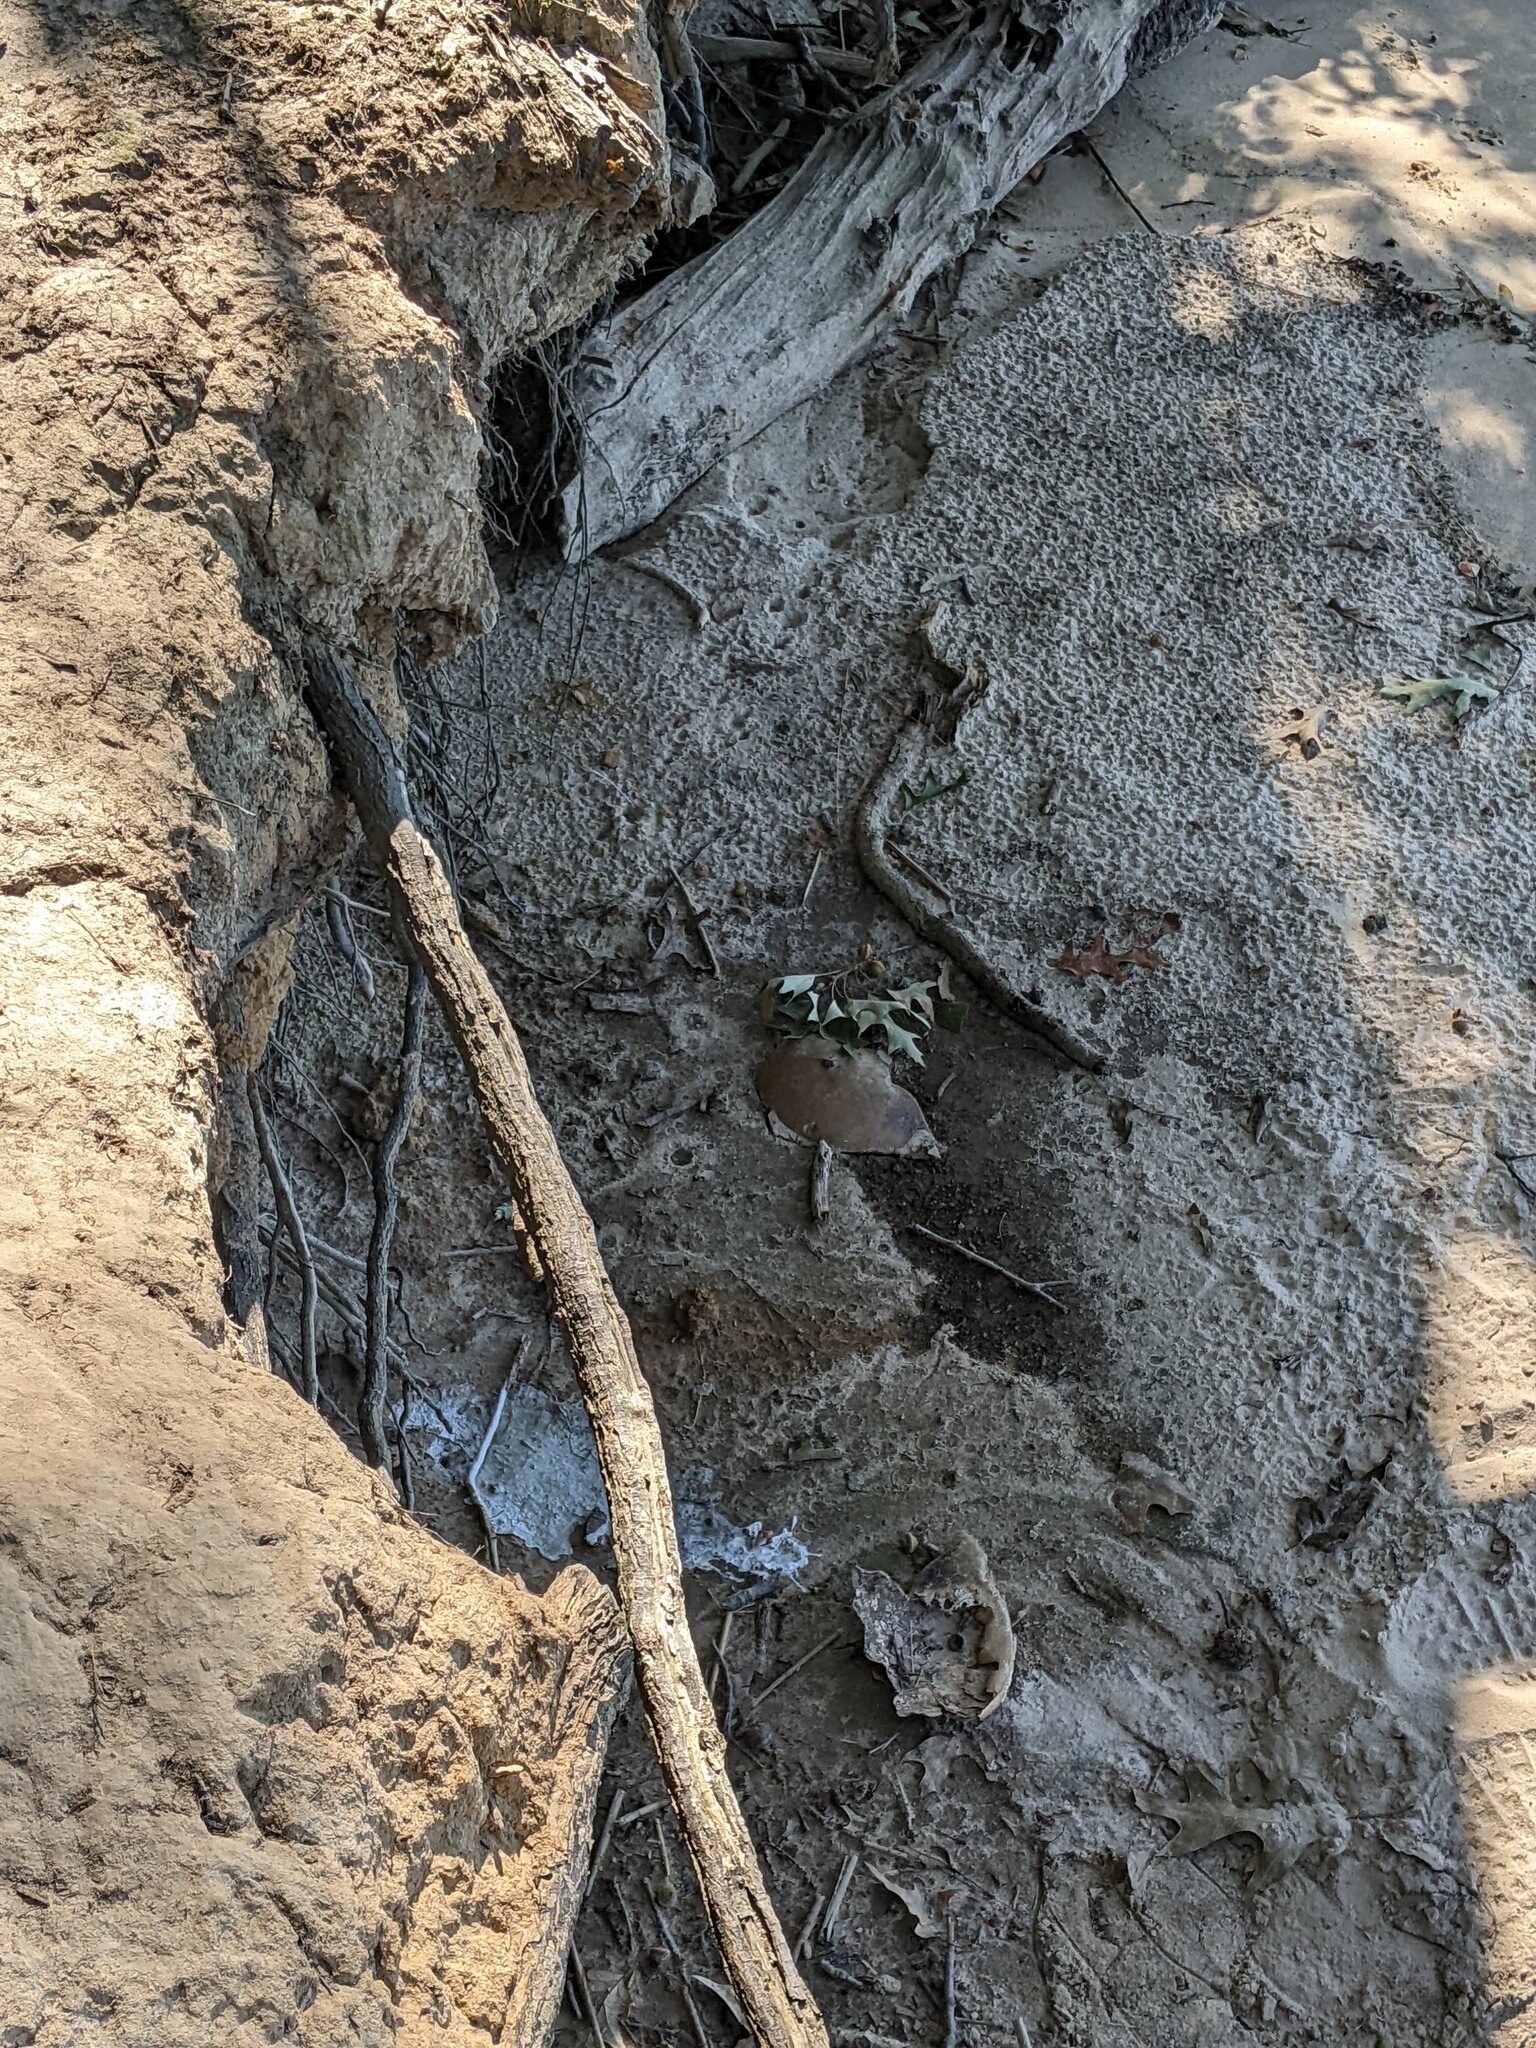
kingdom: Animalia
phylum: Arthropoda
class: Merostomata
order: Xiphosurida
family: Limulidae
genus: Limulus
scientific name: Limulus polyphemus
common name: Horseshoe crab
